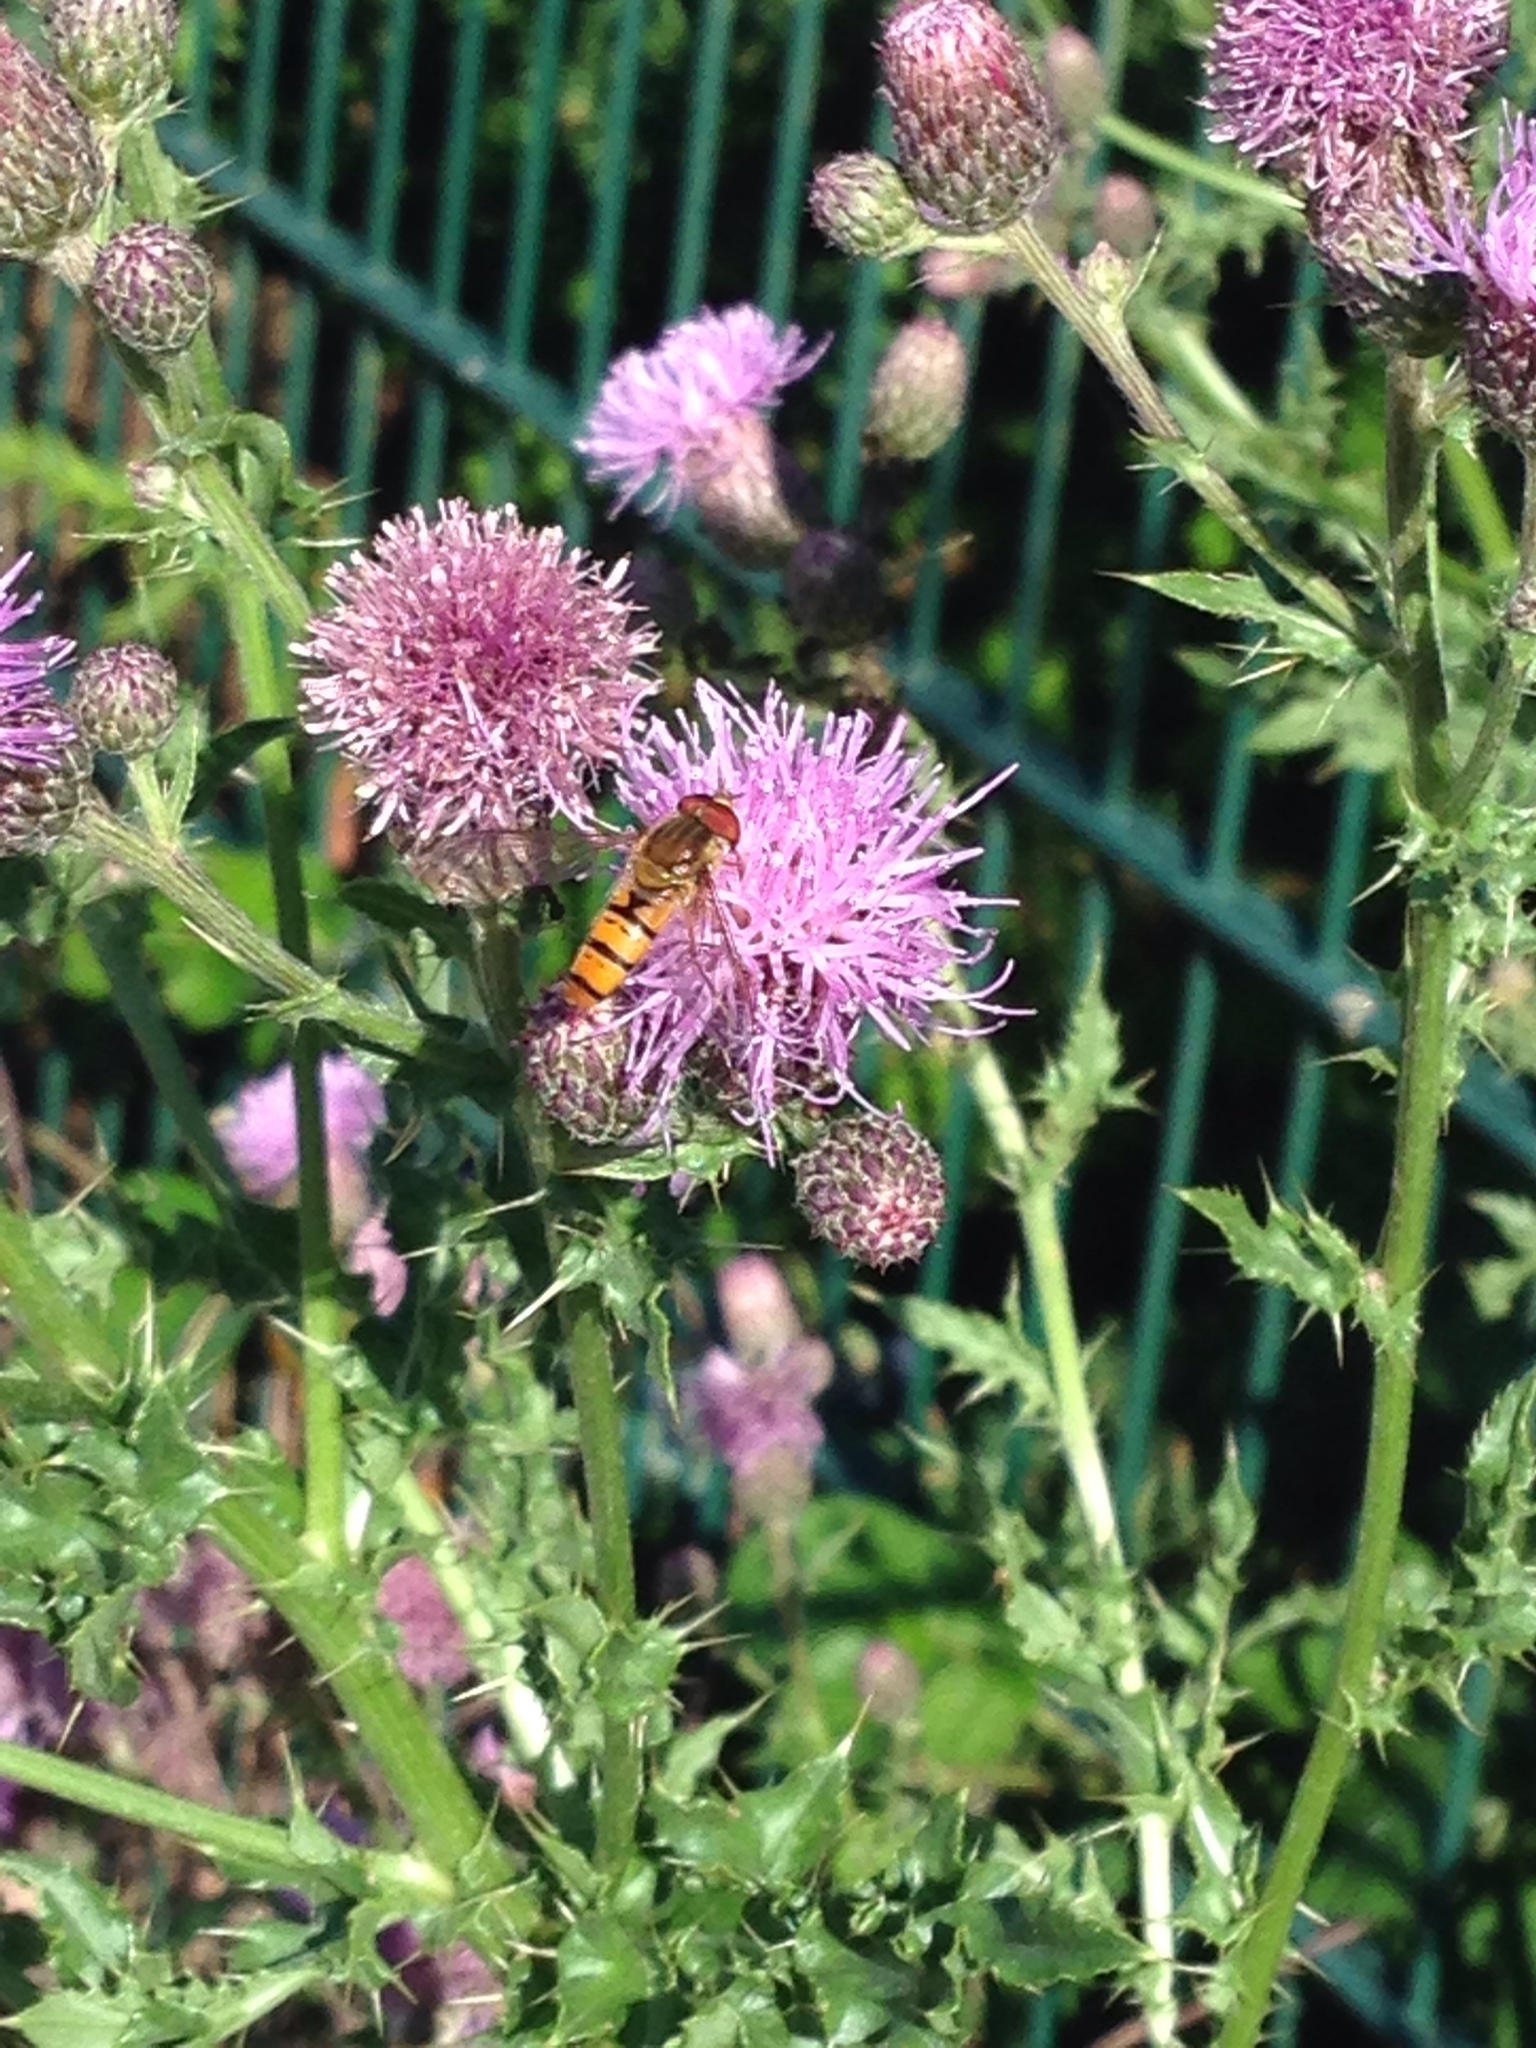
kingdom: Animalia
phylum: Arthropoda
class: Insecta
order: Diptera
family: Syrphidae
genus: Episyrphus
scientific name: Episyrphus balteatus
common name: Marmalade hoverfly
